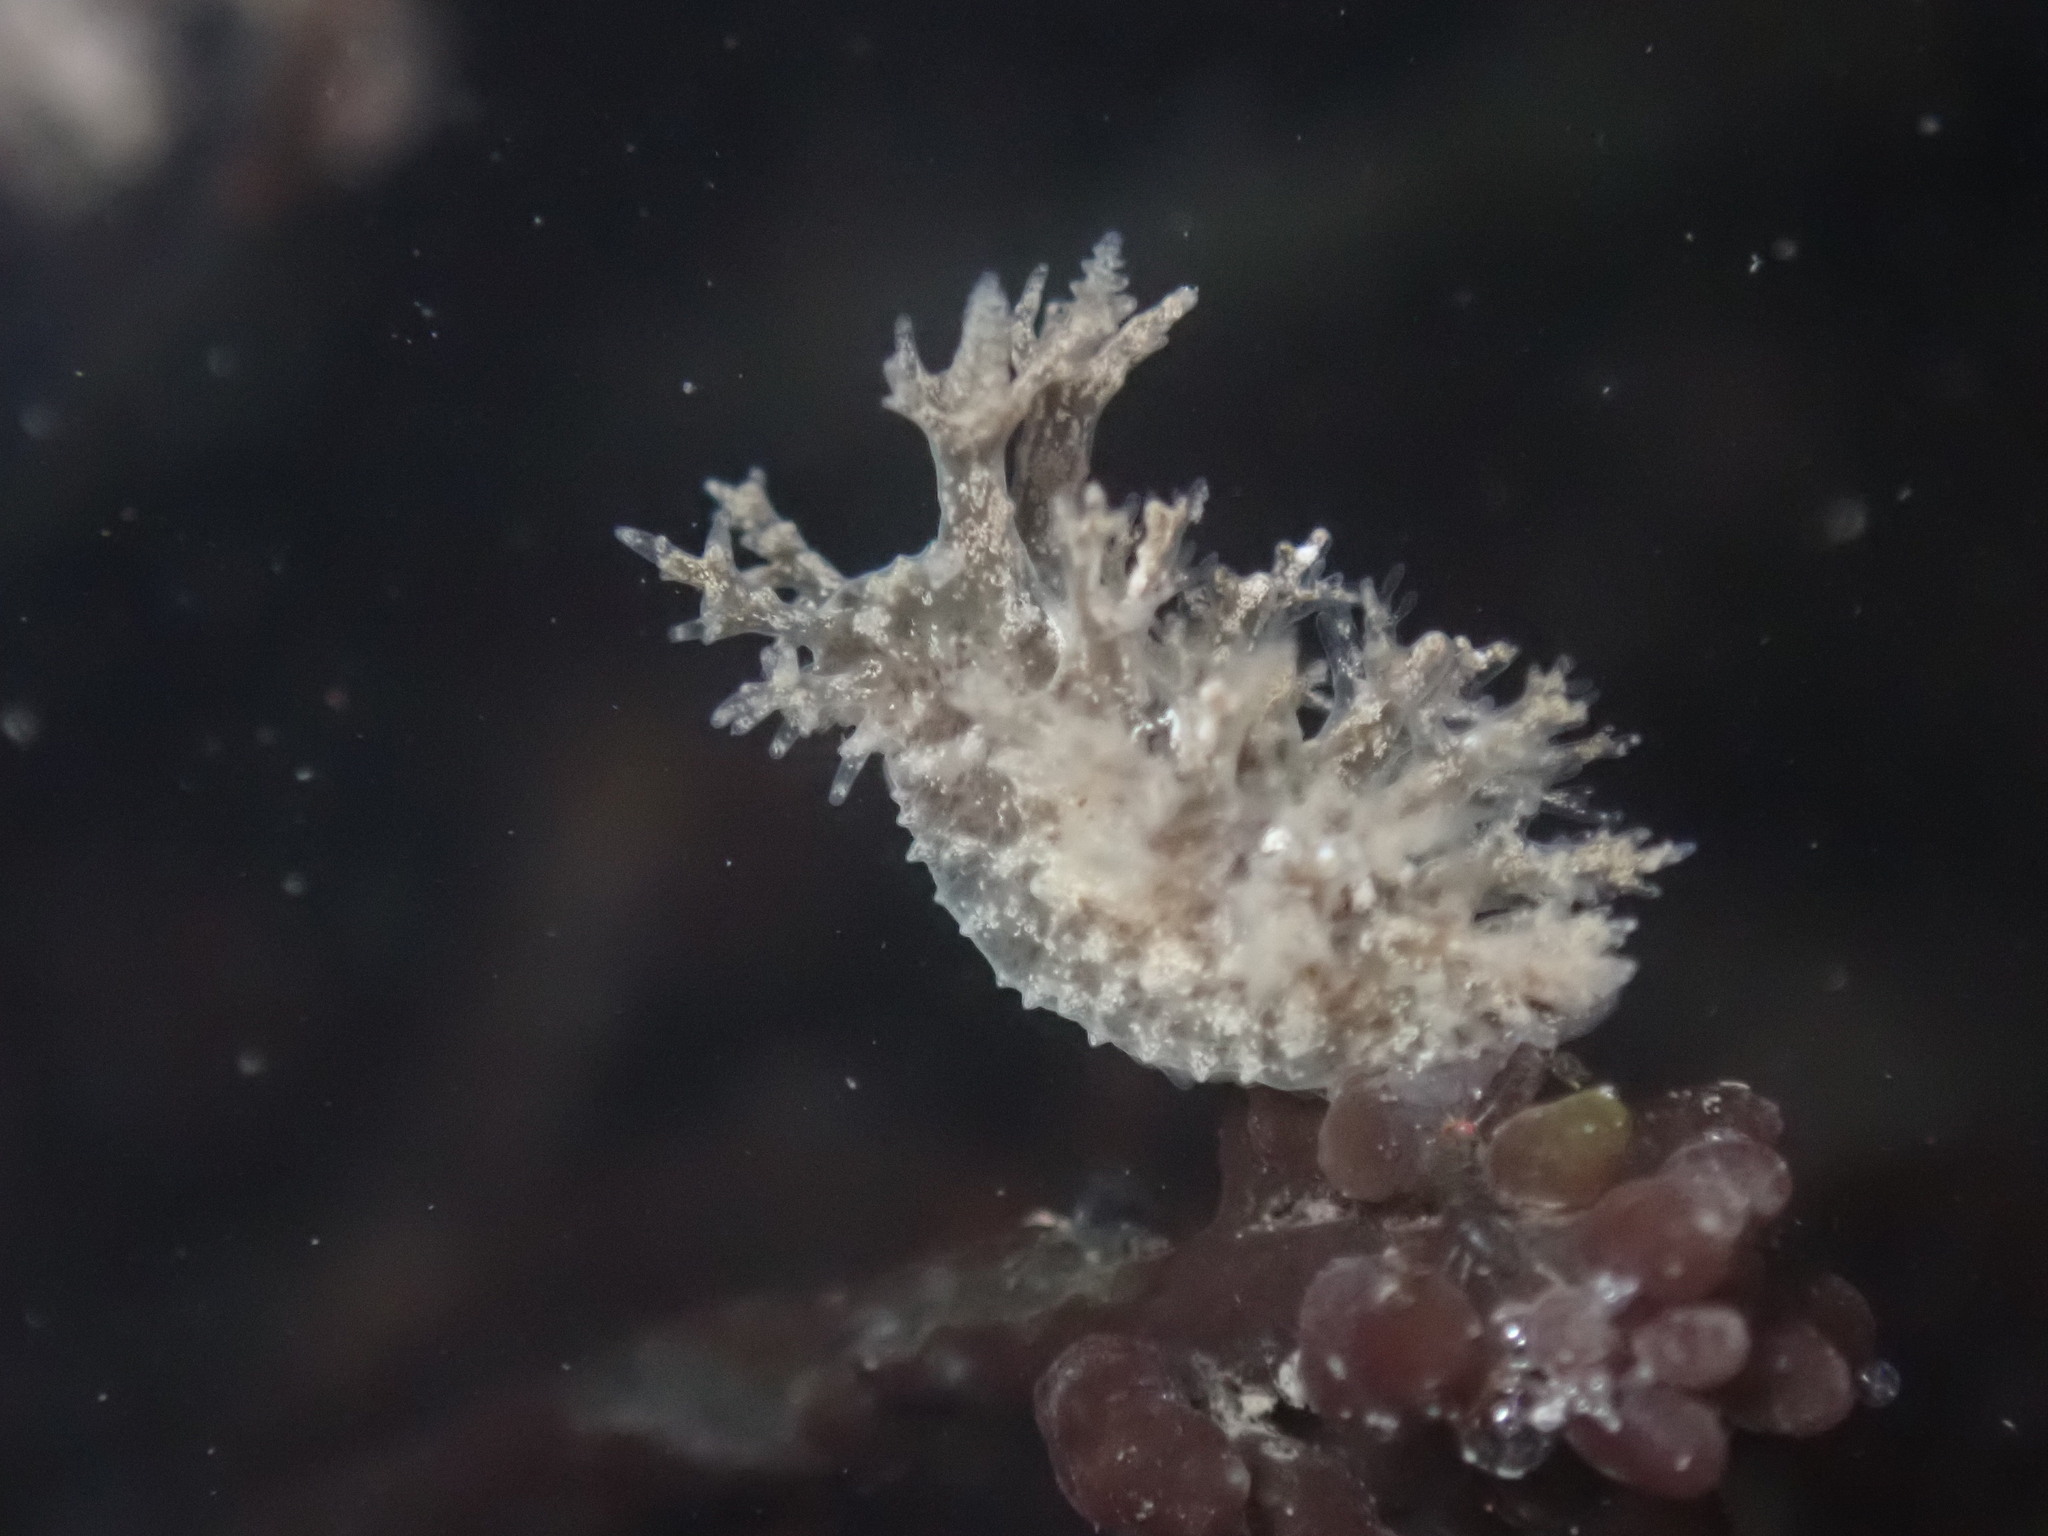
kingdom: Animalia
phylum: Mollusca
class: Gastropoda
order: Nudibranchia
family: Dendronotidae
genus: Dendronotus
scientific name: Dendronotus venustus
